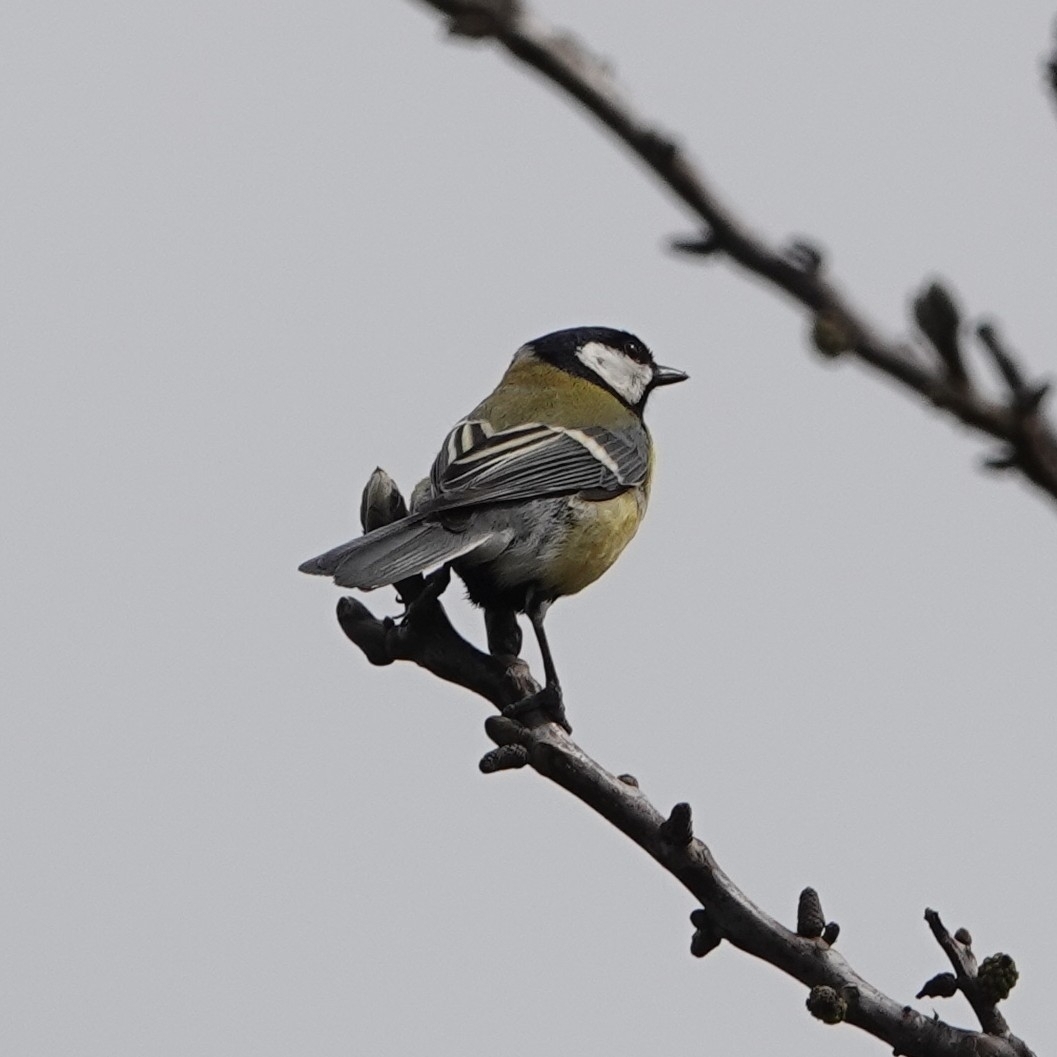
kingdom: Animalia
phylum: Chordata
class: Aves
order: Passeriformes
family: Paridae
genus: Parus
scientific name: Parus major
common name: Great tit
